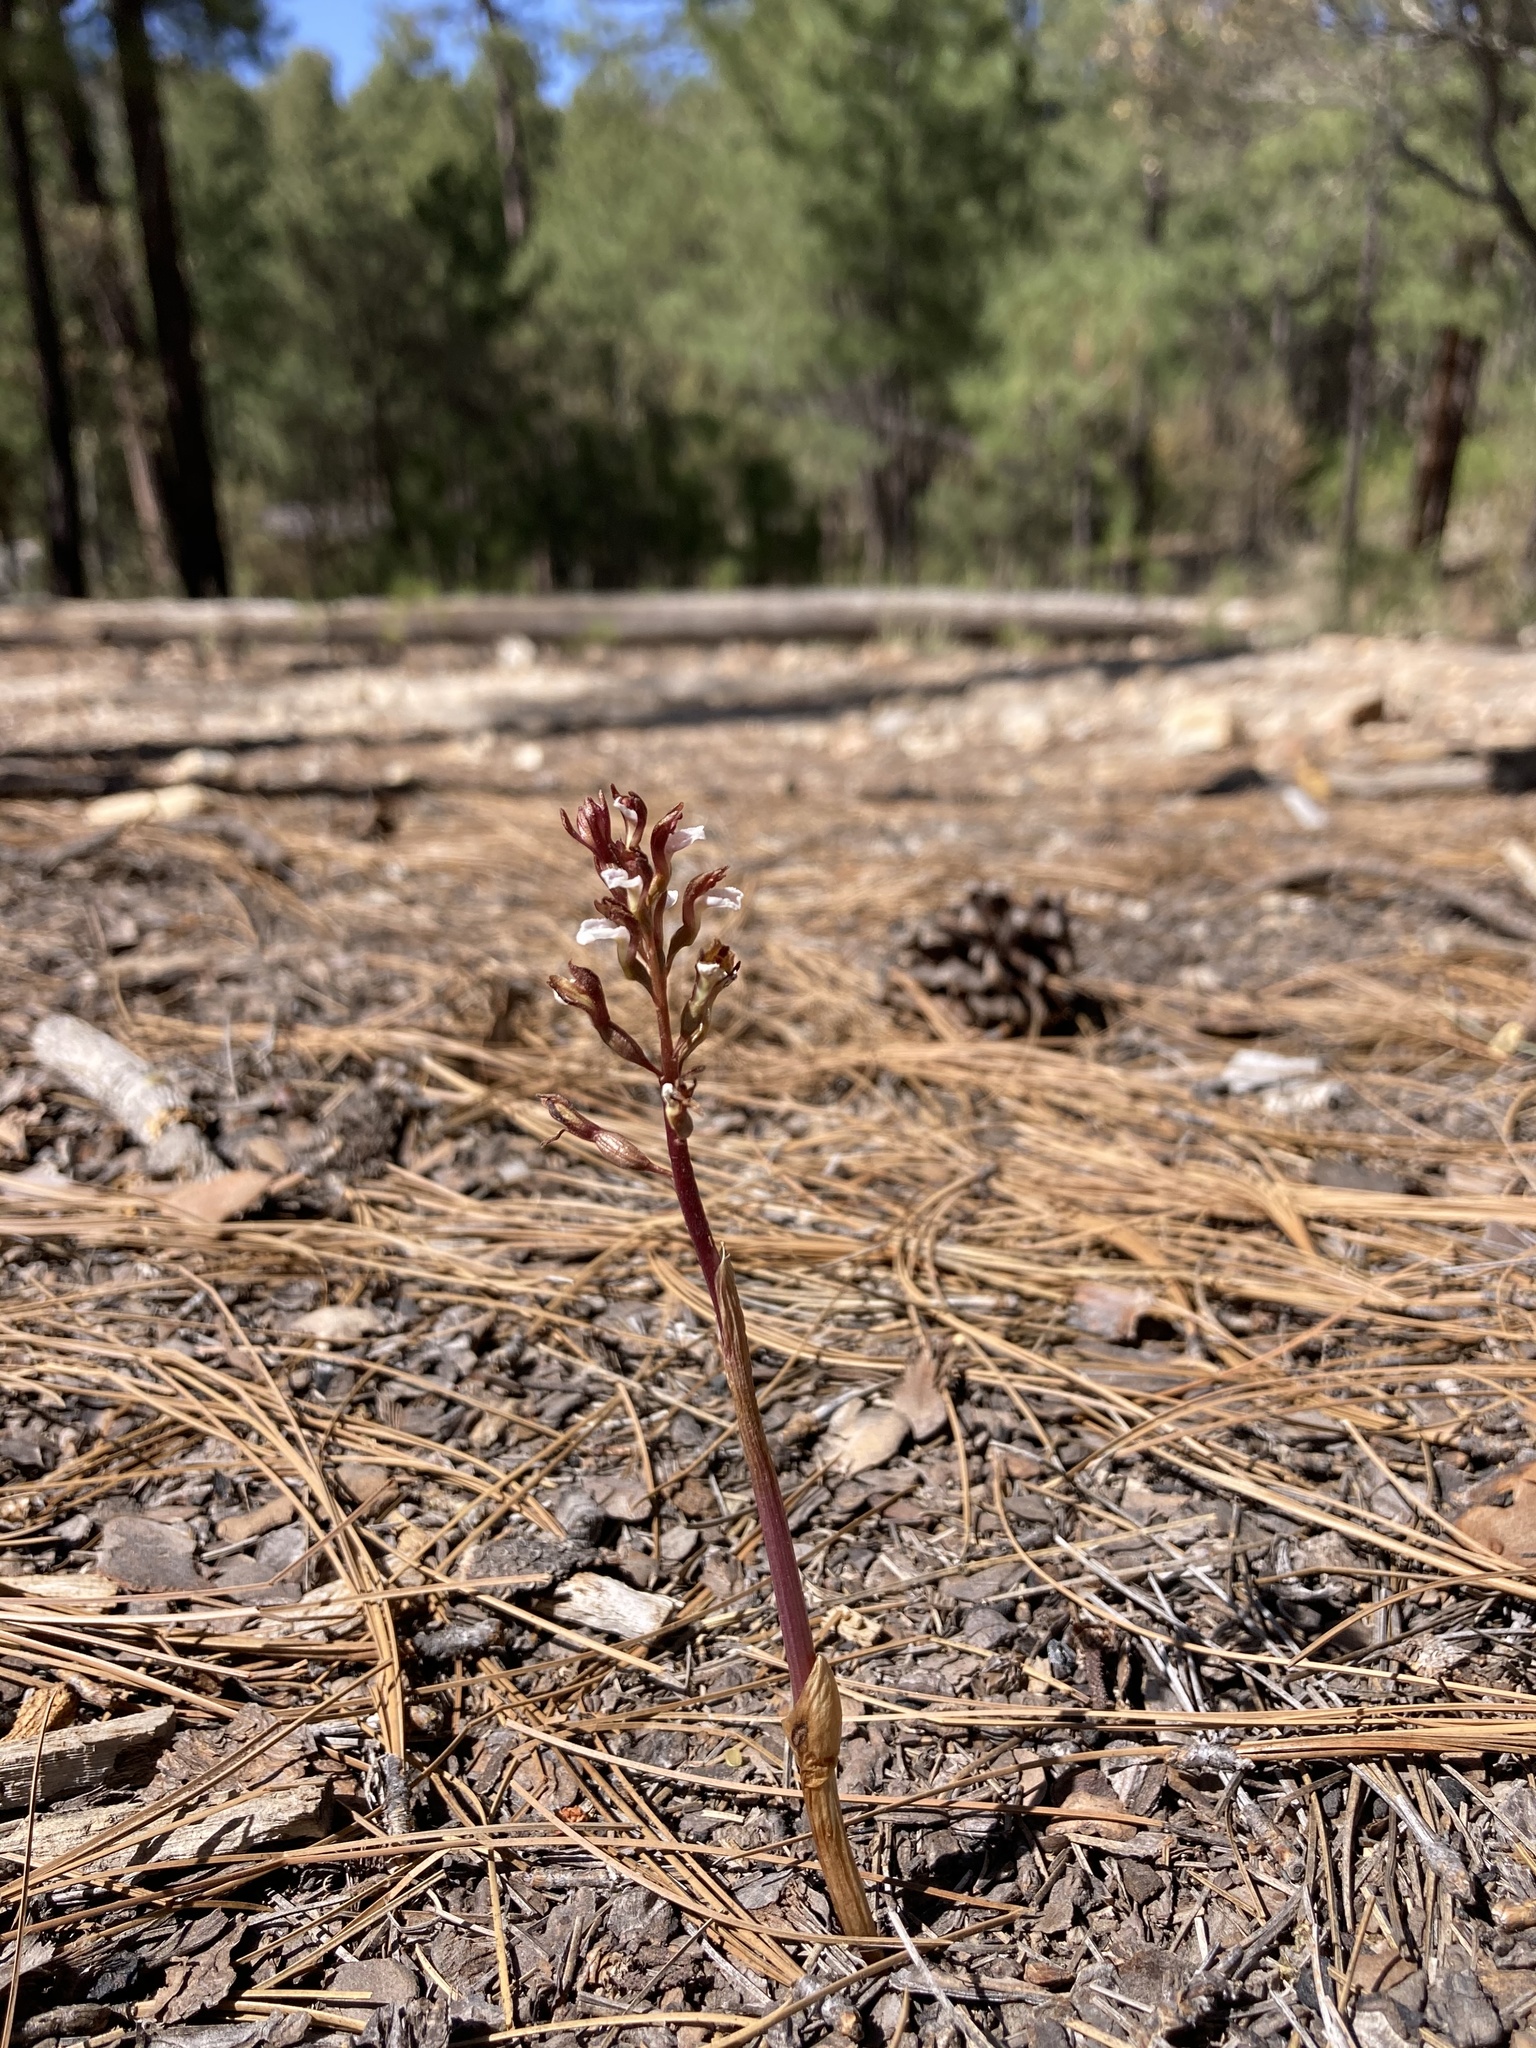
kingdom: Plantae
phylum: Tracheophyta
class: Liliopsida
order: Asparagales
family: Orchidaceae
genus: Corallorhiza
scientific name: Corallorhiza wisteriana
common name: Spring coralroot
